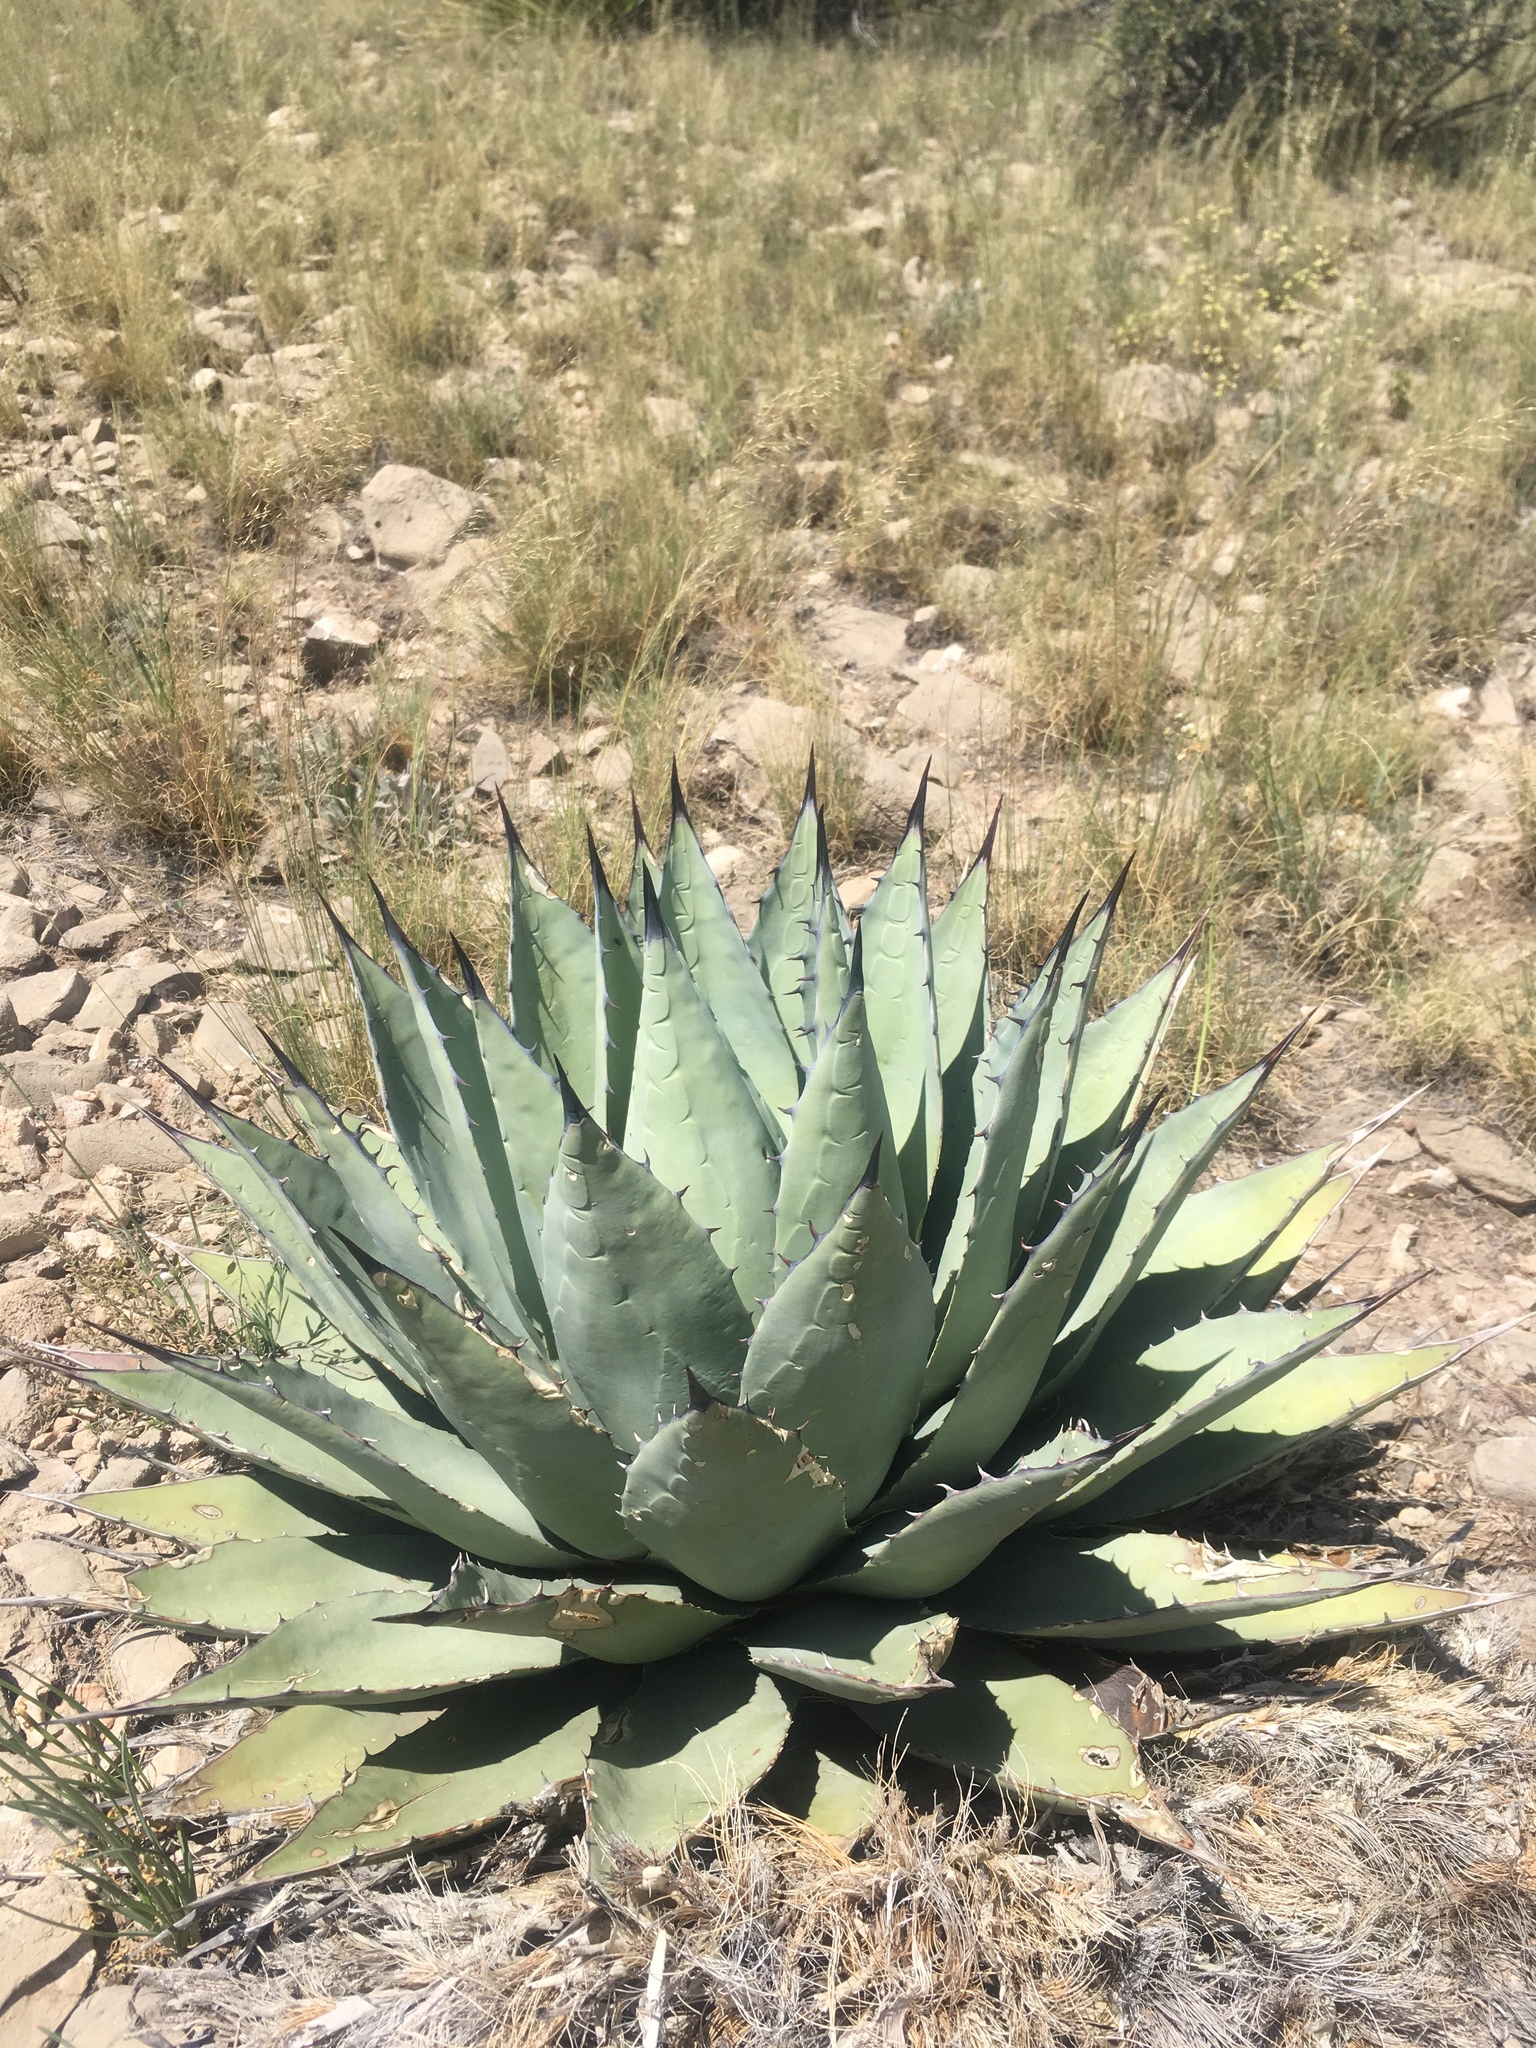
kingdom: Plantae
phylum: Tracheophyta
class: Liliopsida
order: Asparagales
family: Asparagaceae
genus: Agave
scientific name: Agave parryi
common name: Parry's agave
